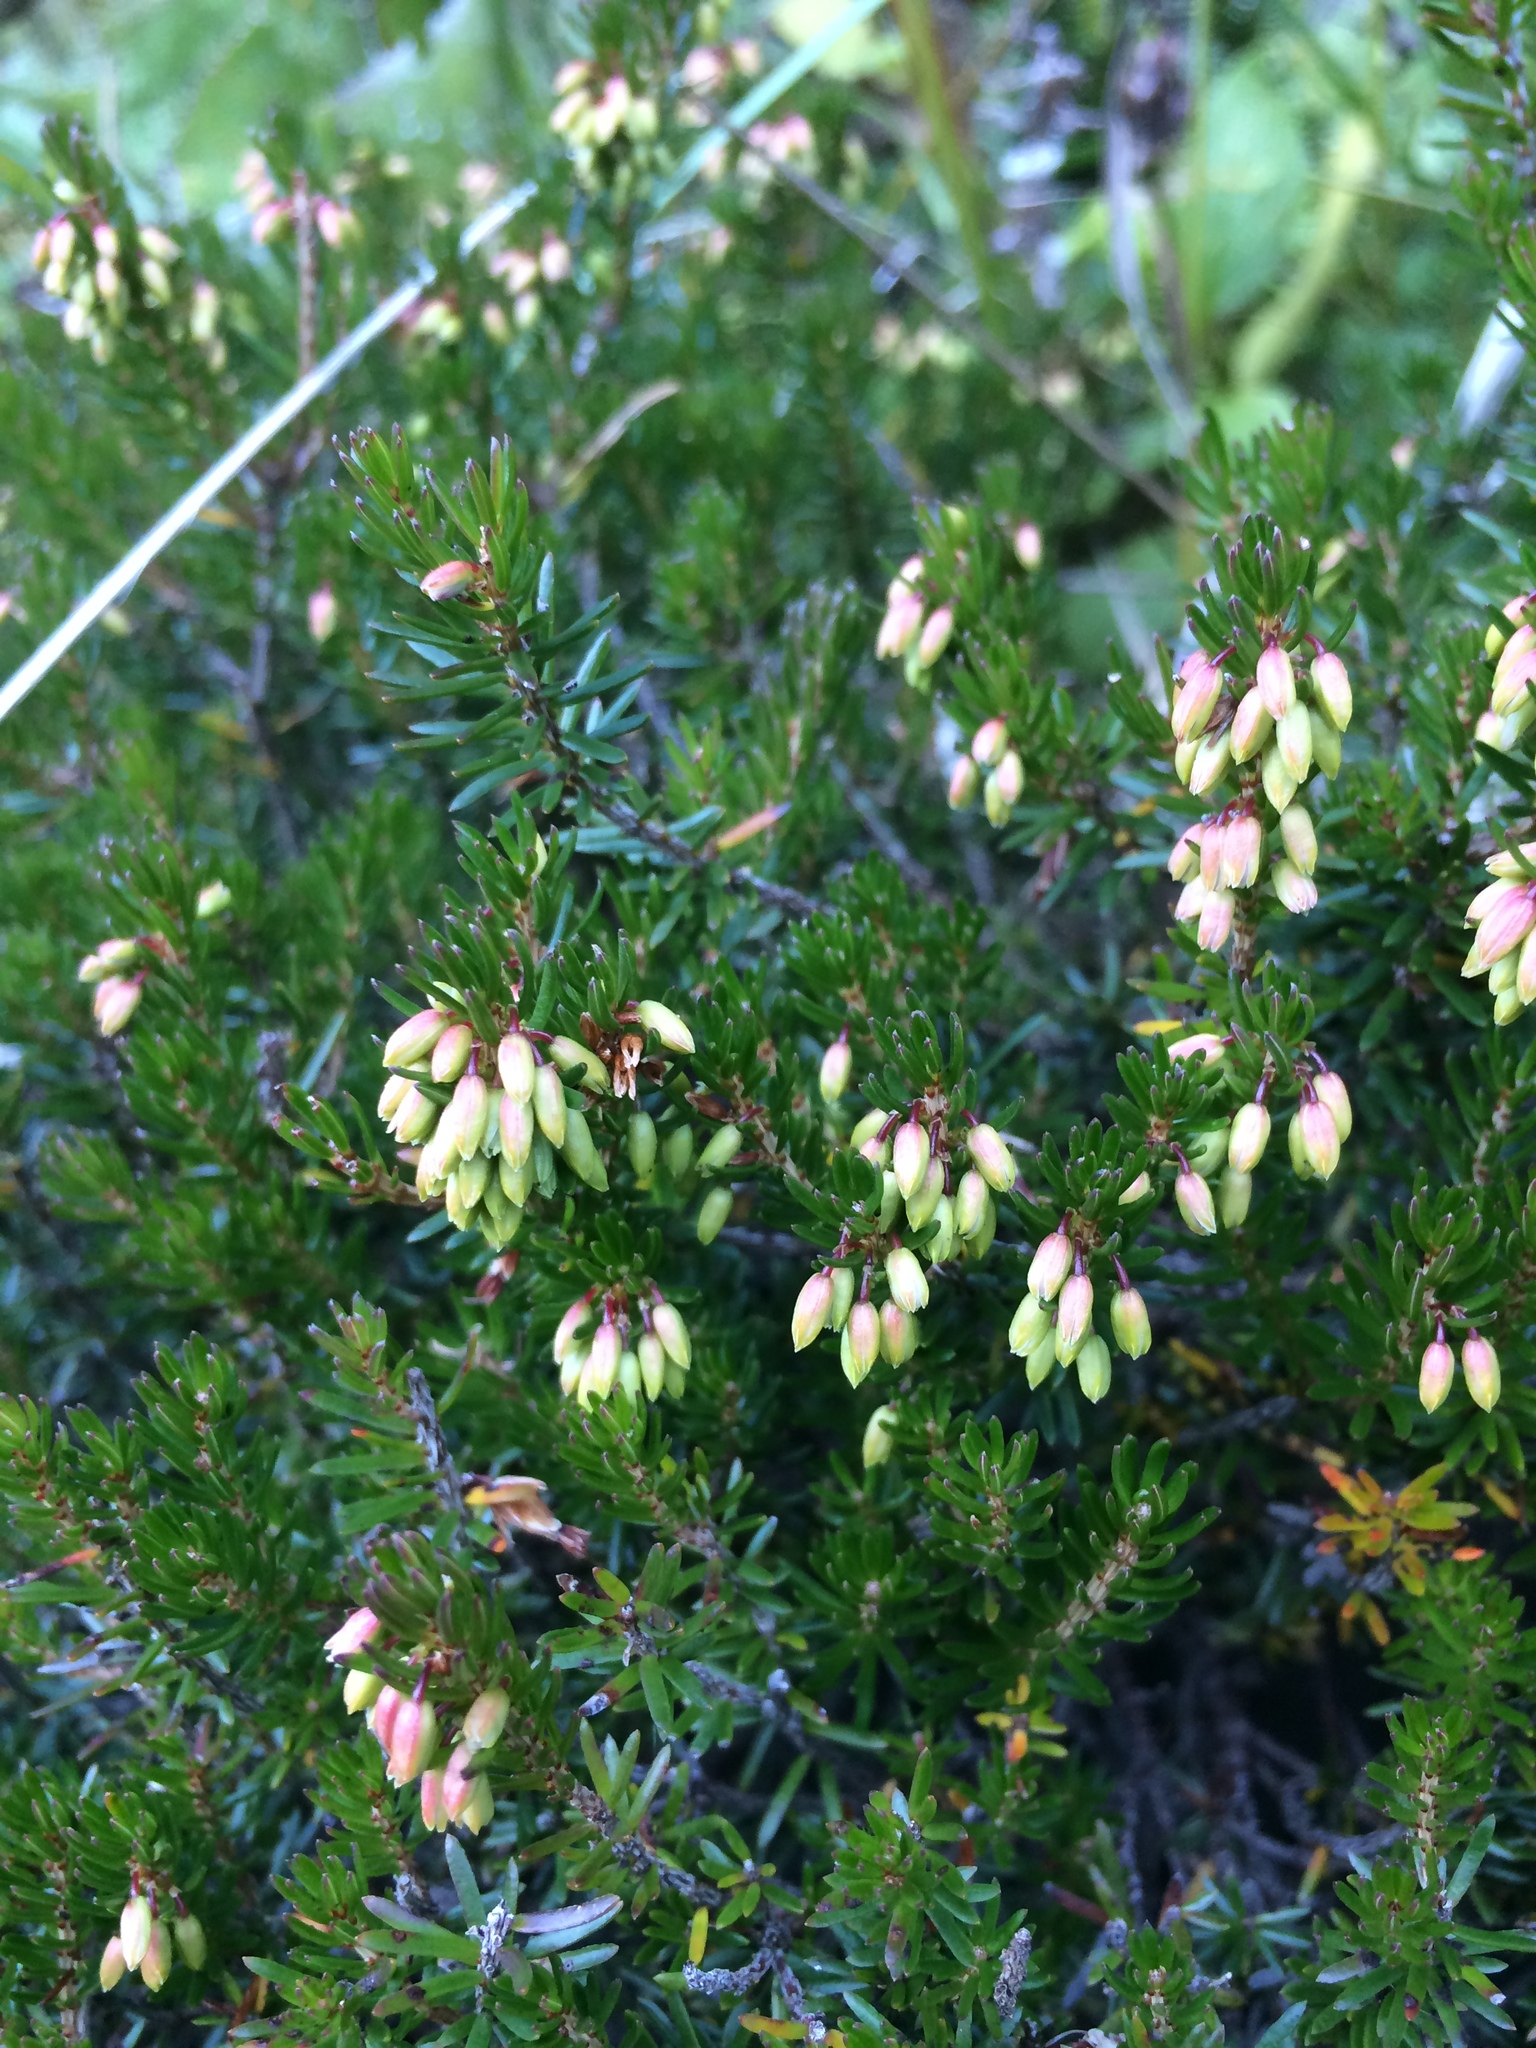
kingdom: Plantae
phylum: Tracheophyta
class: Magnoliopsida
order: Ericales
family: Ericaceae
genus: Erica
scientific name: Erica carnea
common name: Winter heath
